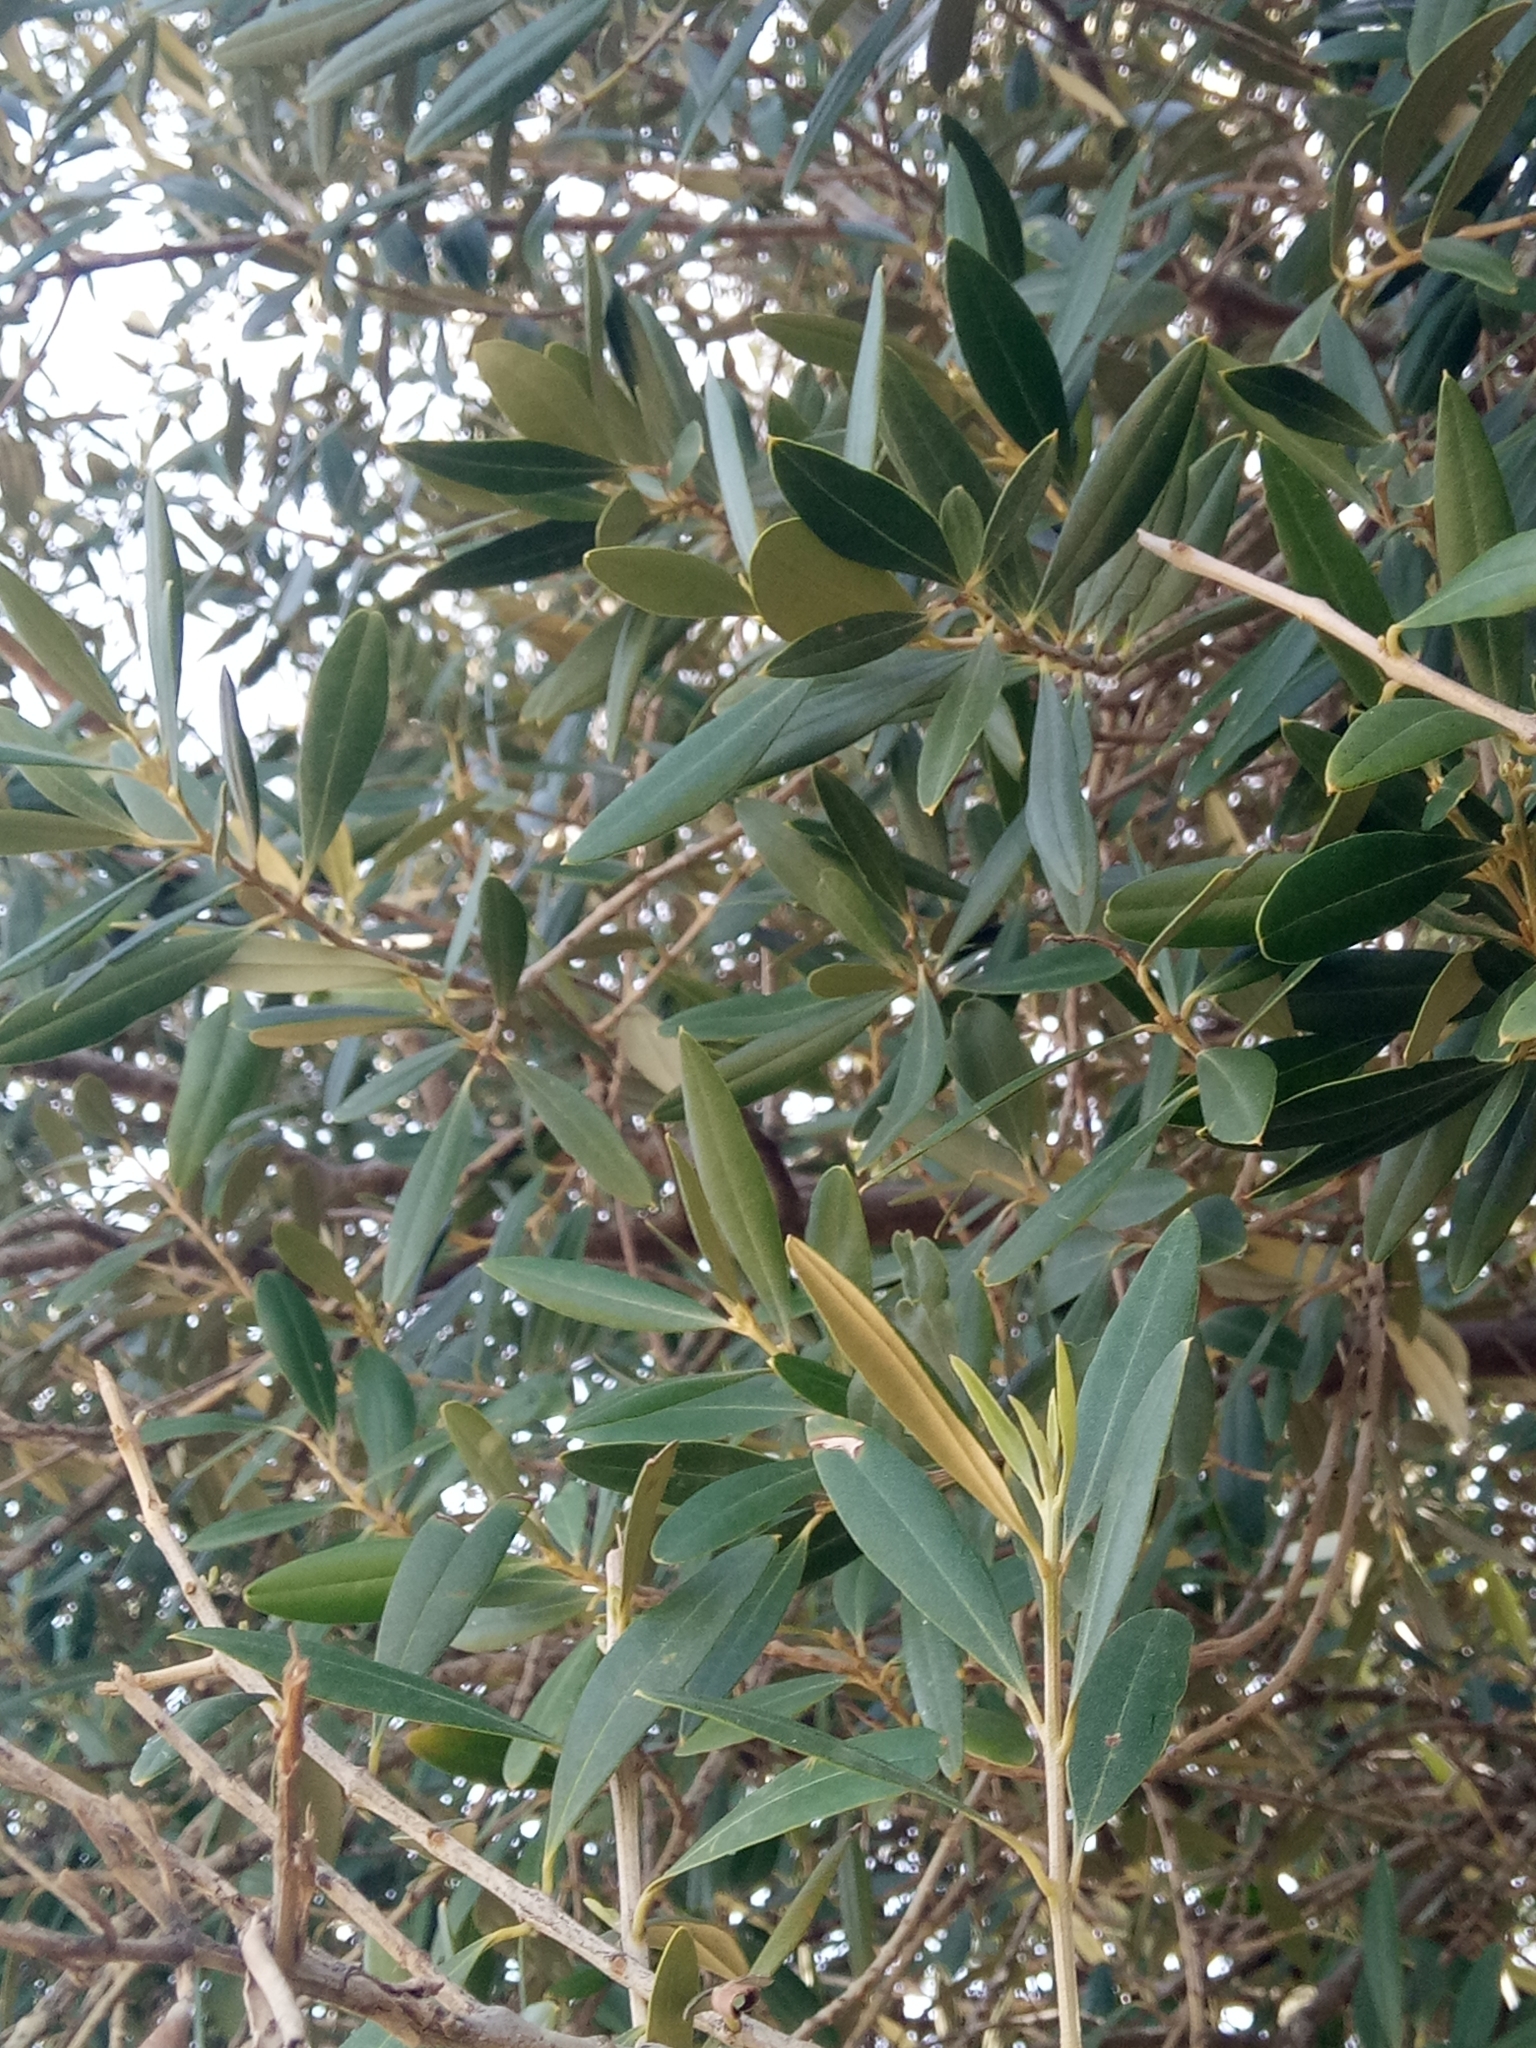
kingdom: Plantae
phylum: Tracheophyta
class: Magnoliopsida
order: Lamiales
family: Oleaceae
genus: Olea
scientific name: Olea europaea
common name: Olive
